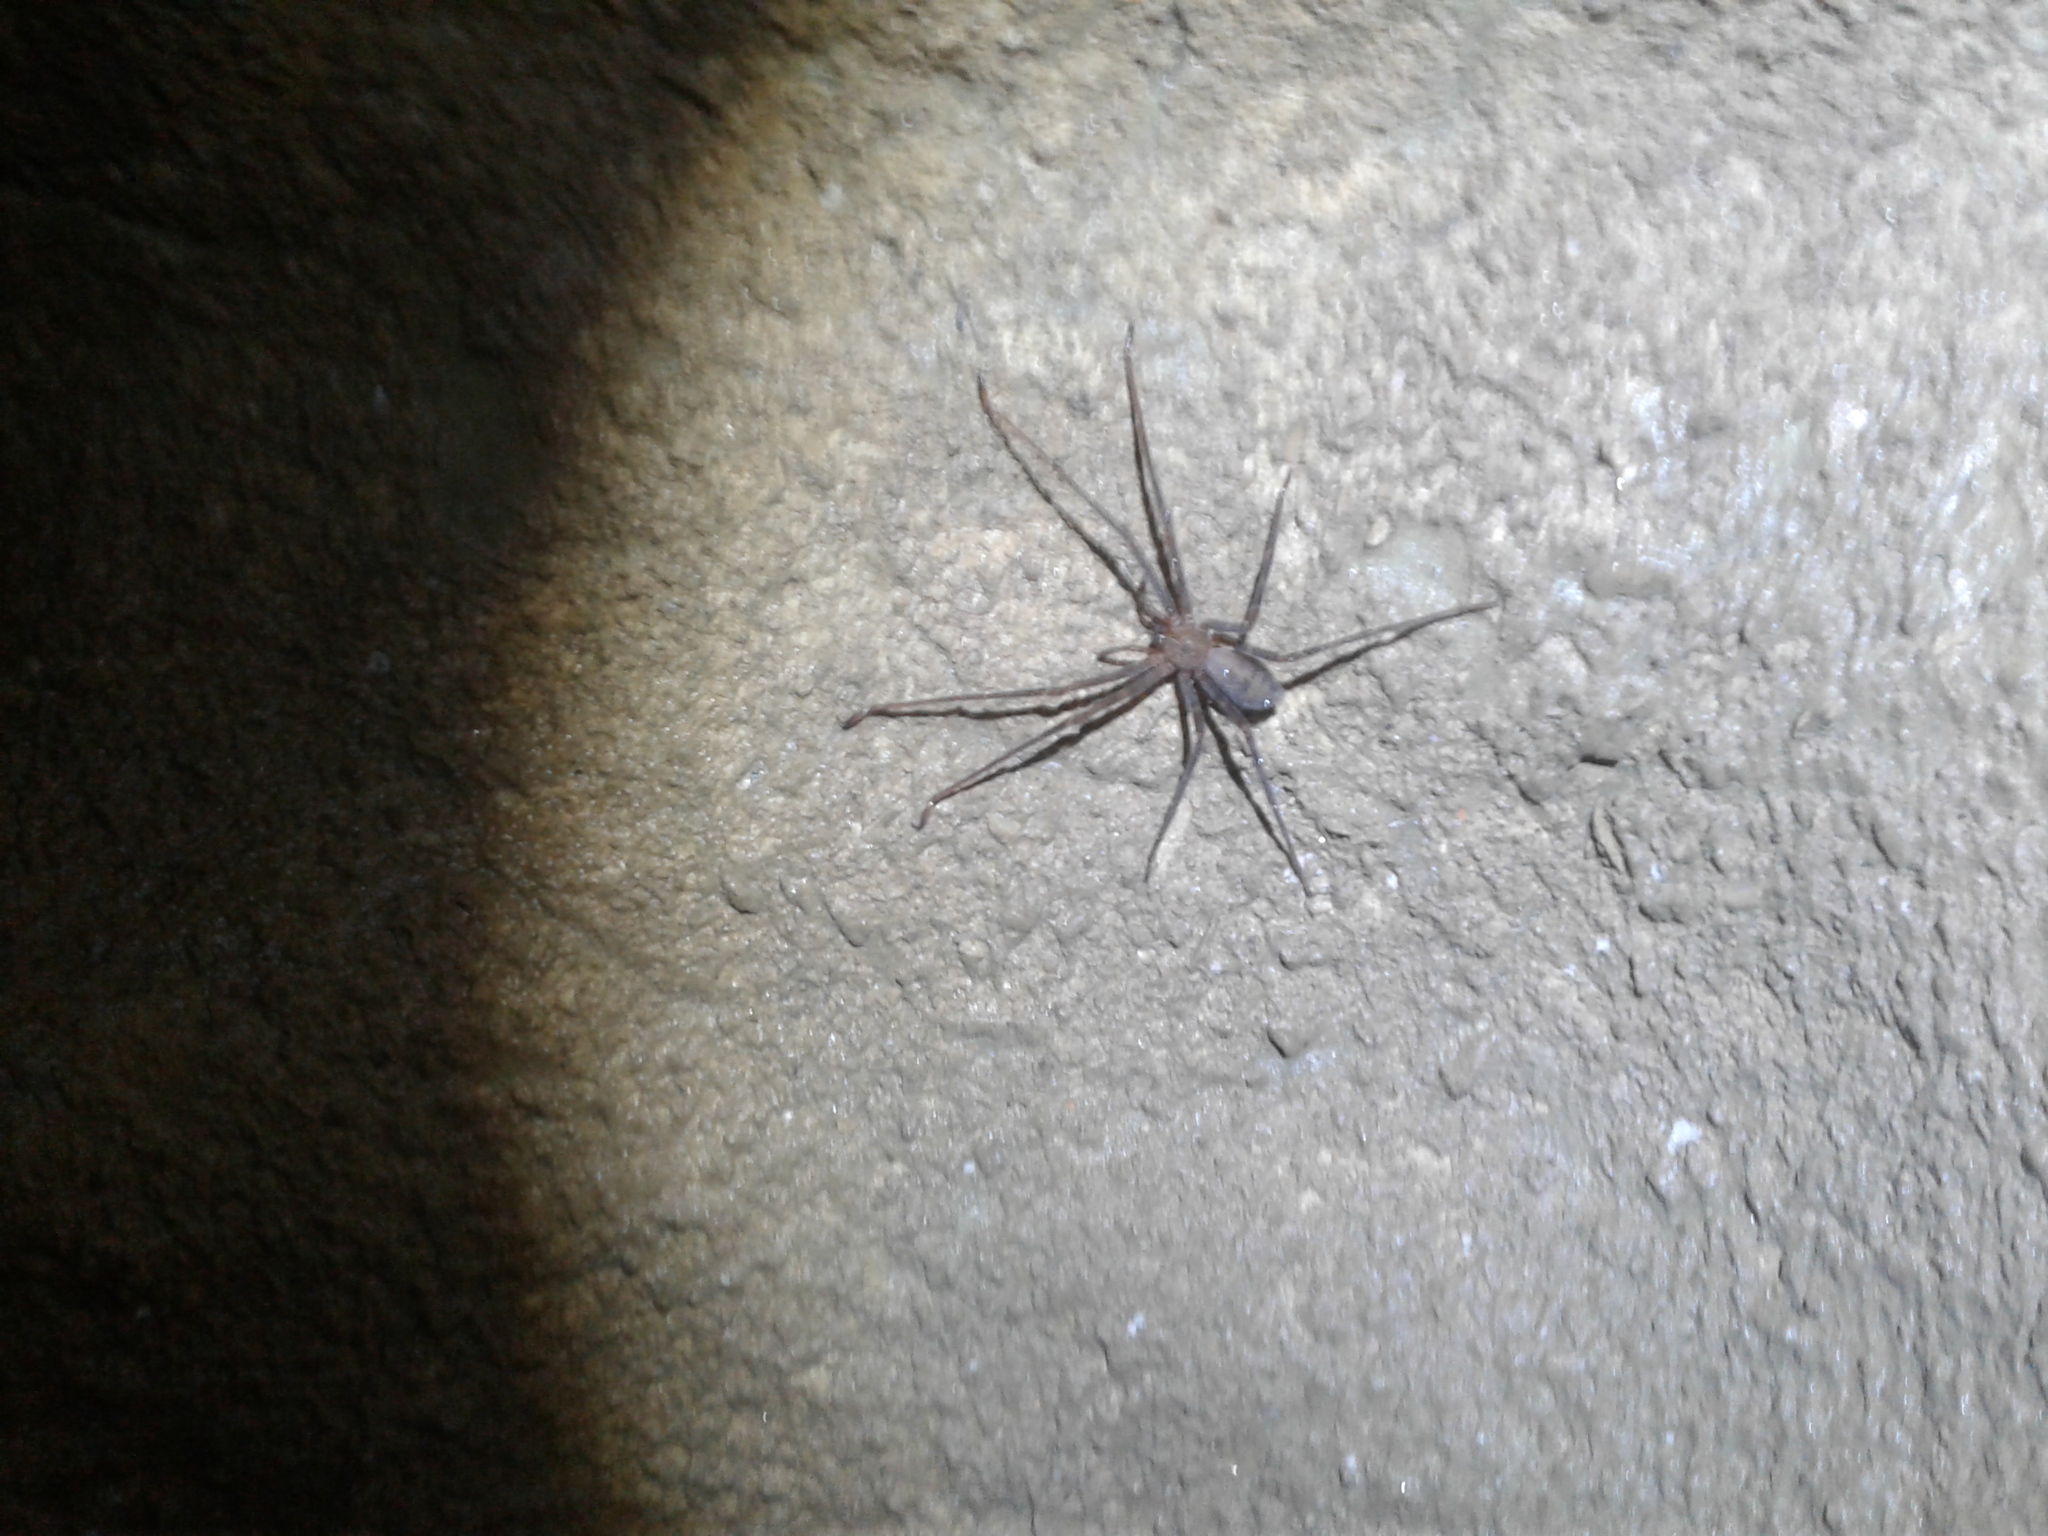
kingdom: Animalia
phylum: Arthropoda
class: Arachnida
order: Araneae
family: Gradungulidae
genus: Spelungula
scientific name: Spelungula cavernicola
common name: Nelson cave spider
